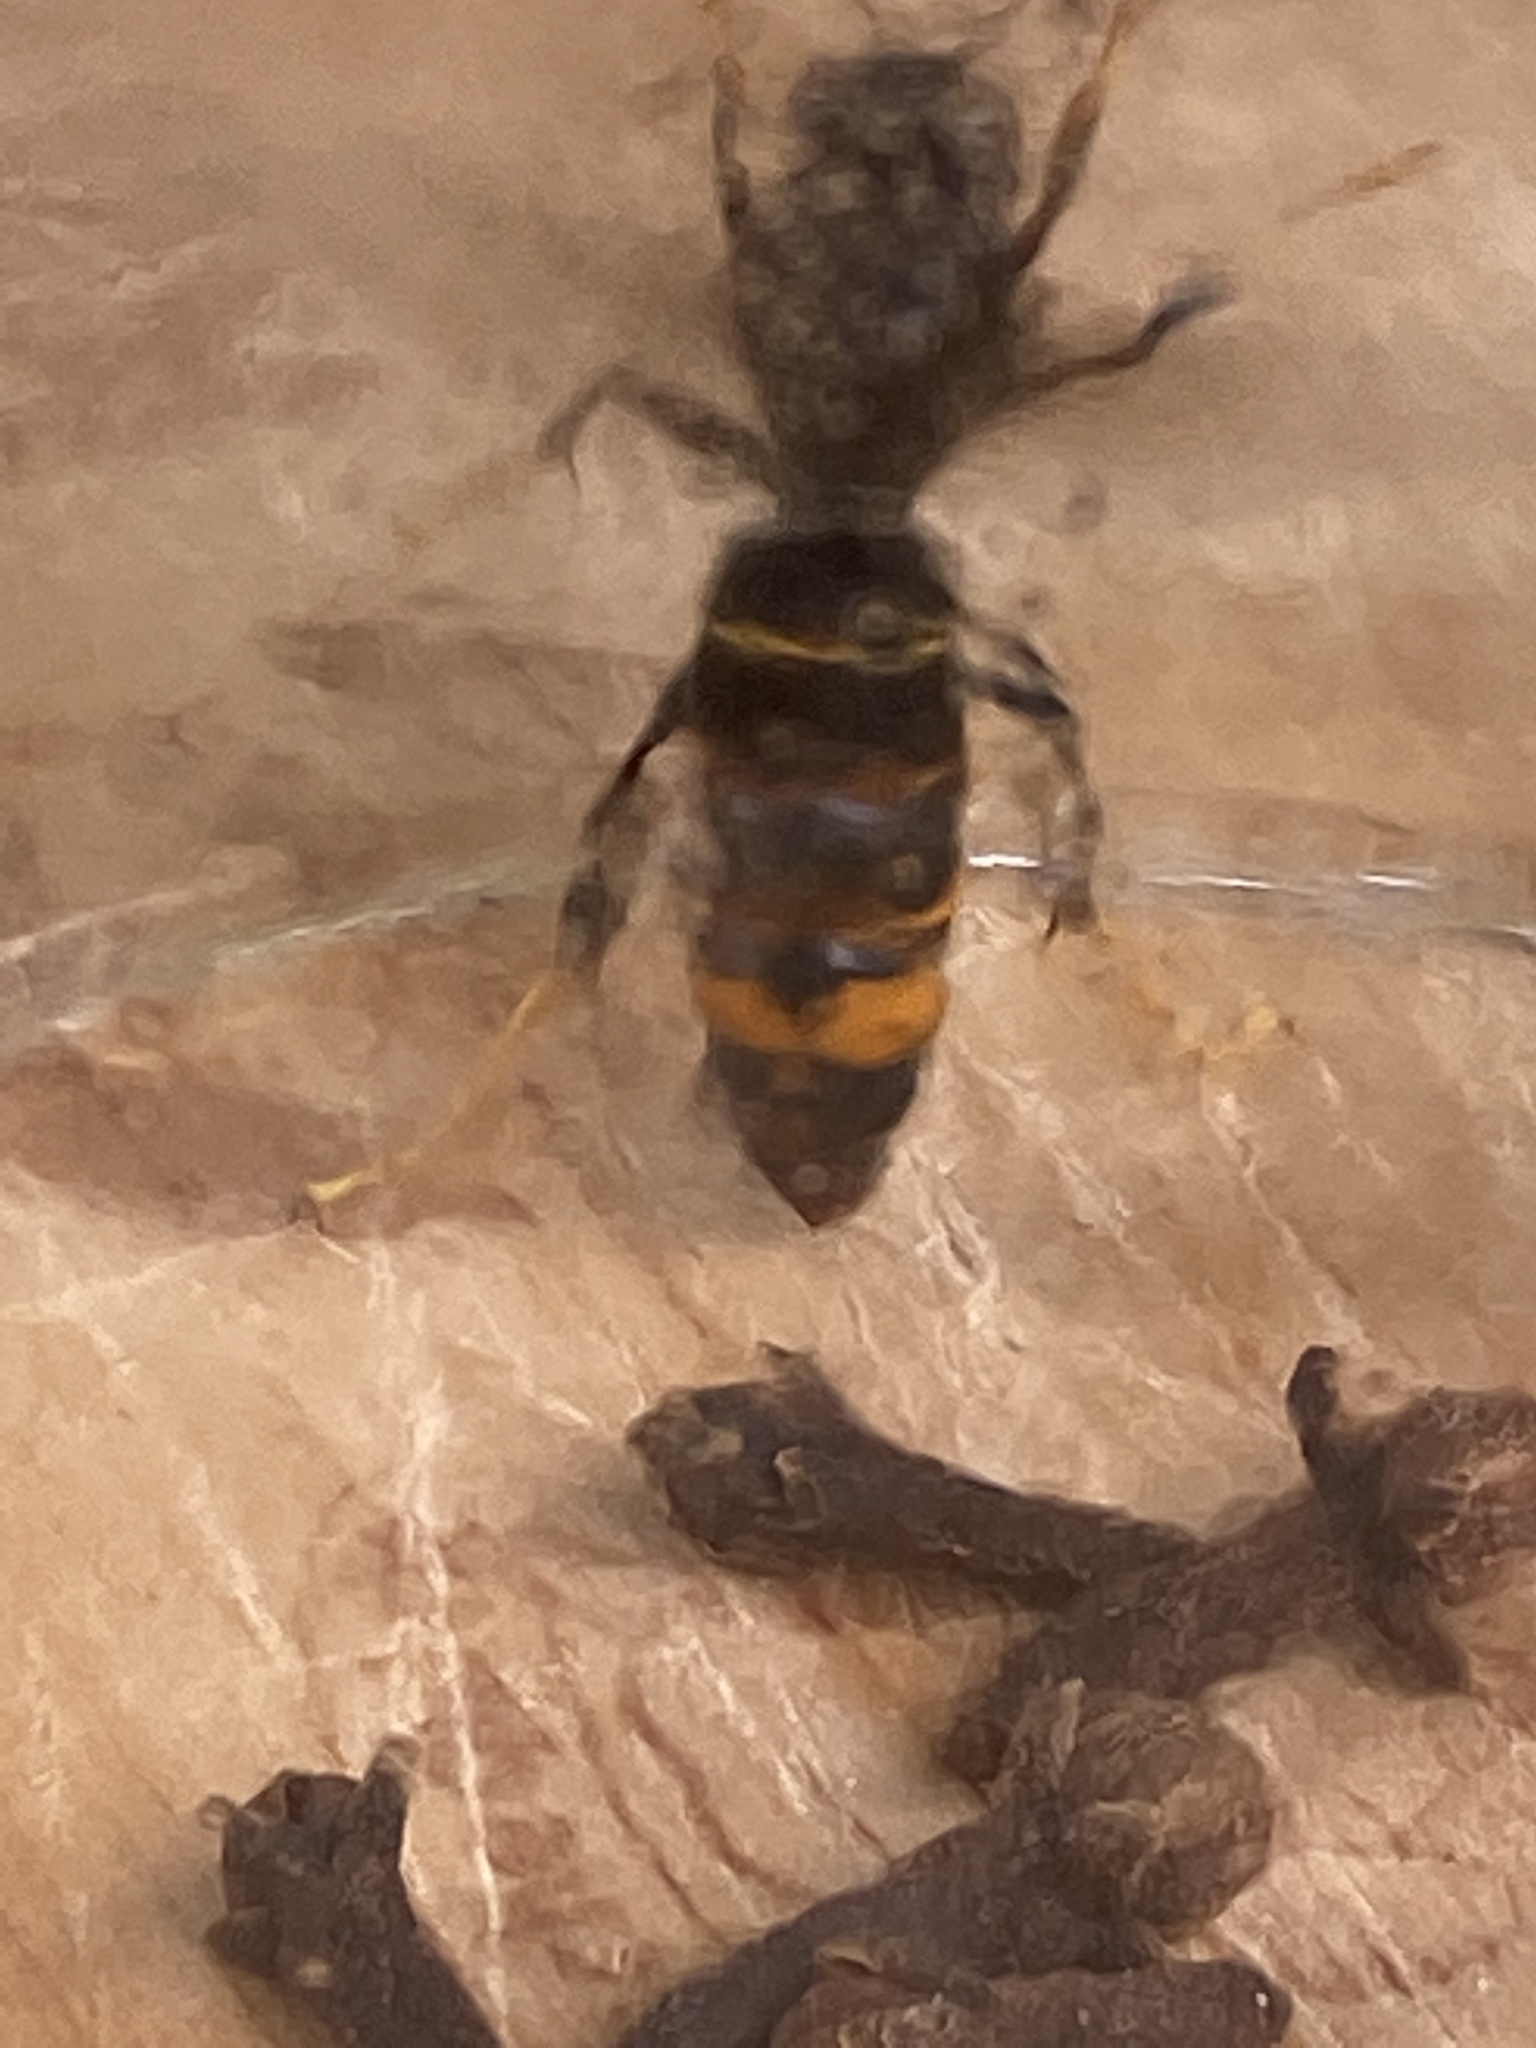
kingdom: Animalia
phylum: Arthropoda
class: Insecta
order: Hymenoptera
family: Vespidae
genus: Vespa
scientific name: Vespa velutina
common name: Asian hornet
